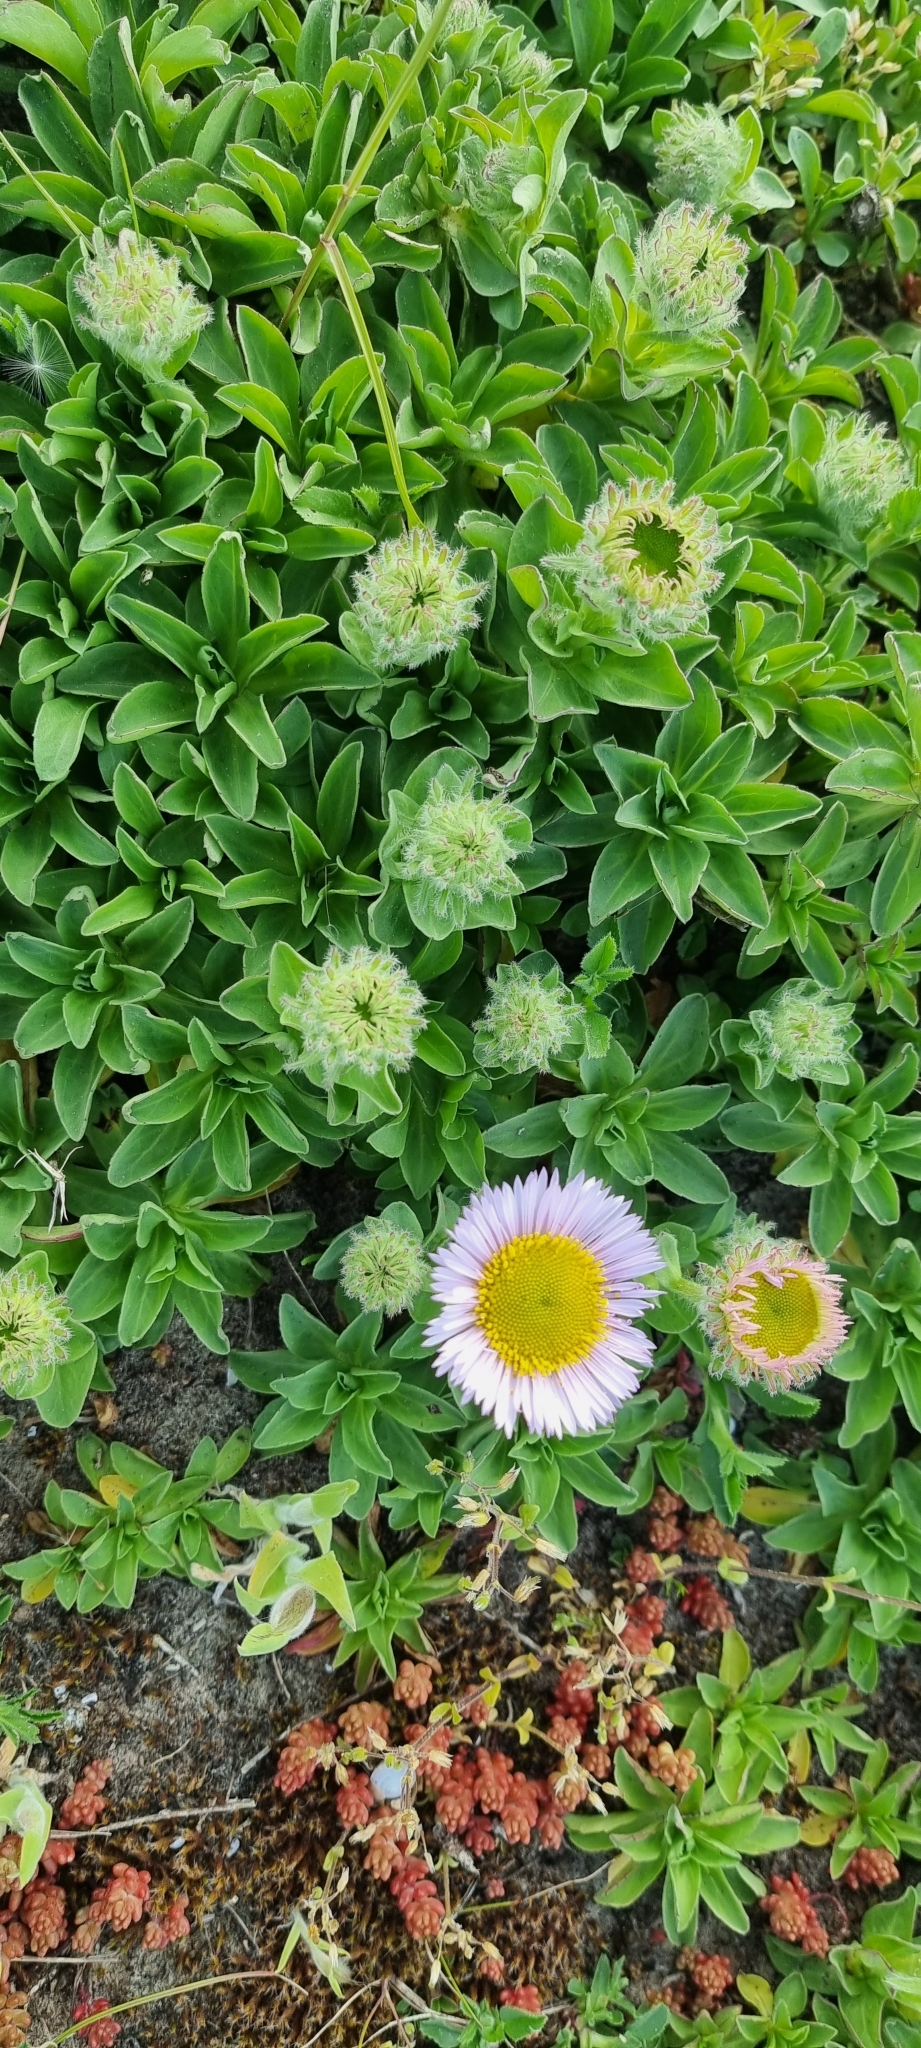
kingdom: Plantae
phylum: Tracheophyta
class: Magnoliopsida
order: Asterales
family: Asteraceae
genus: Erigeron
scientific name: Erigeron glaucus
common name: Seaside daisy
